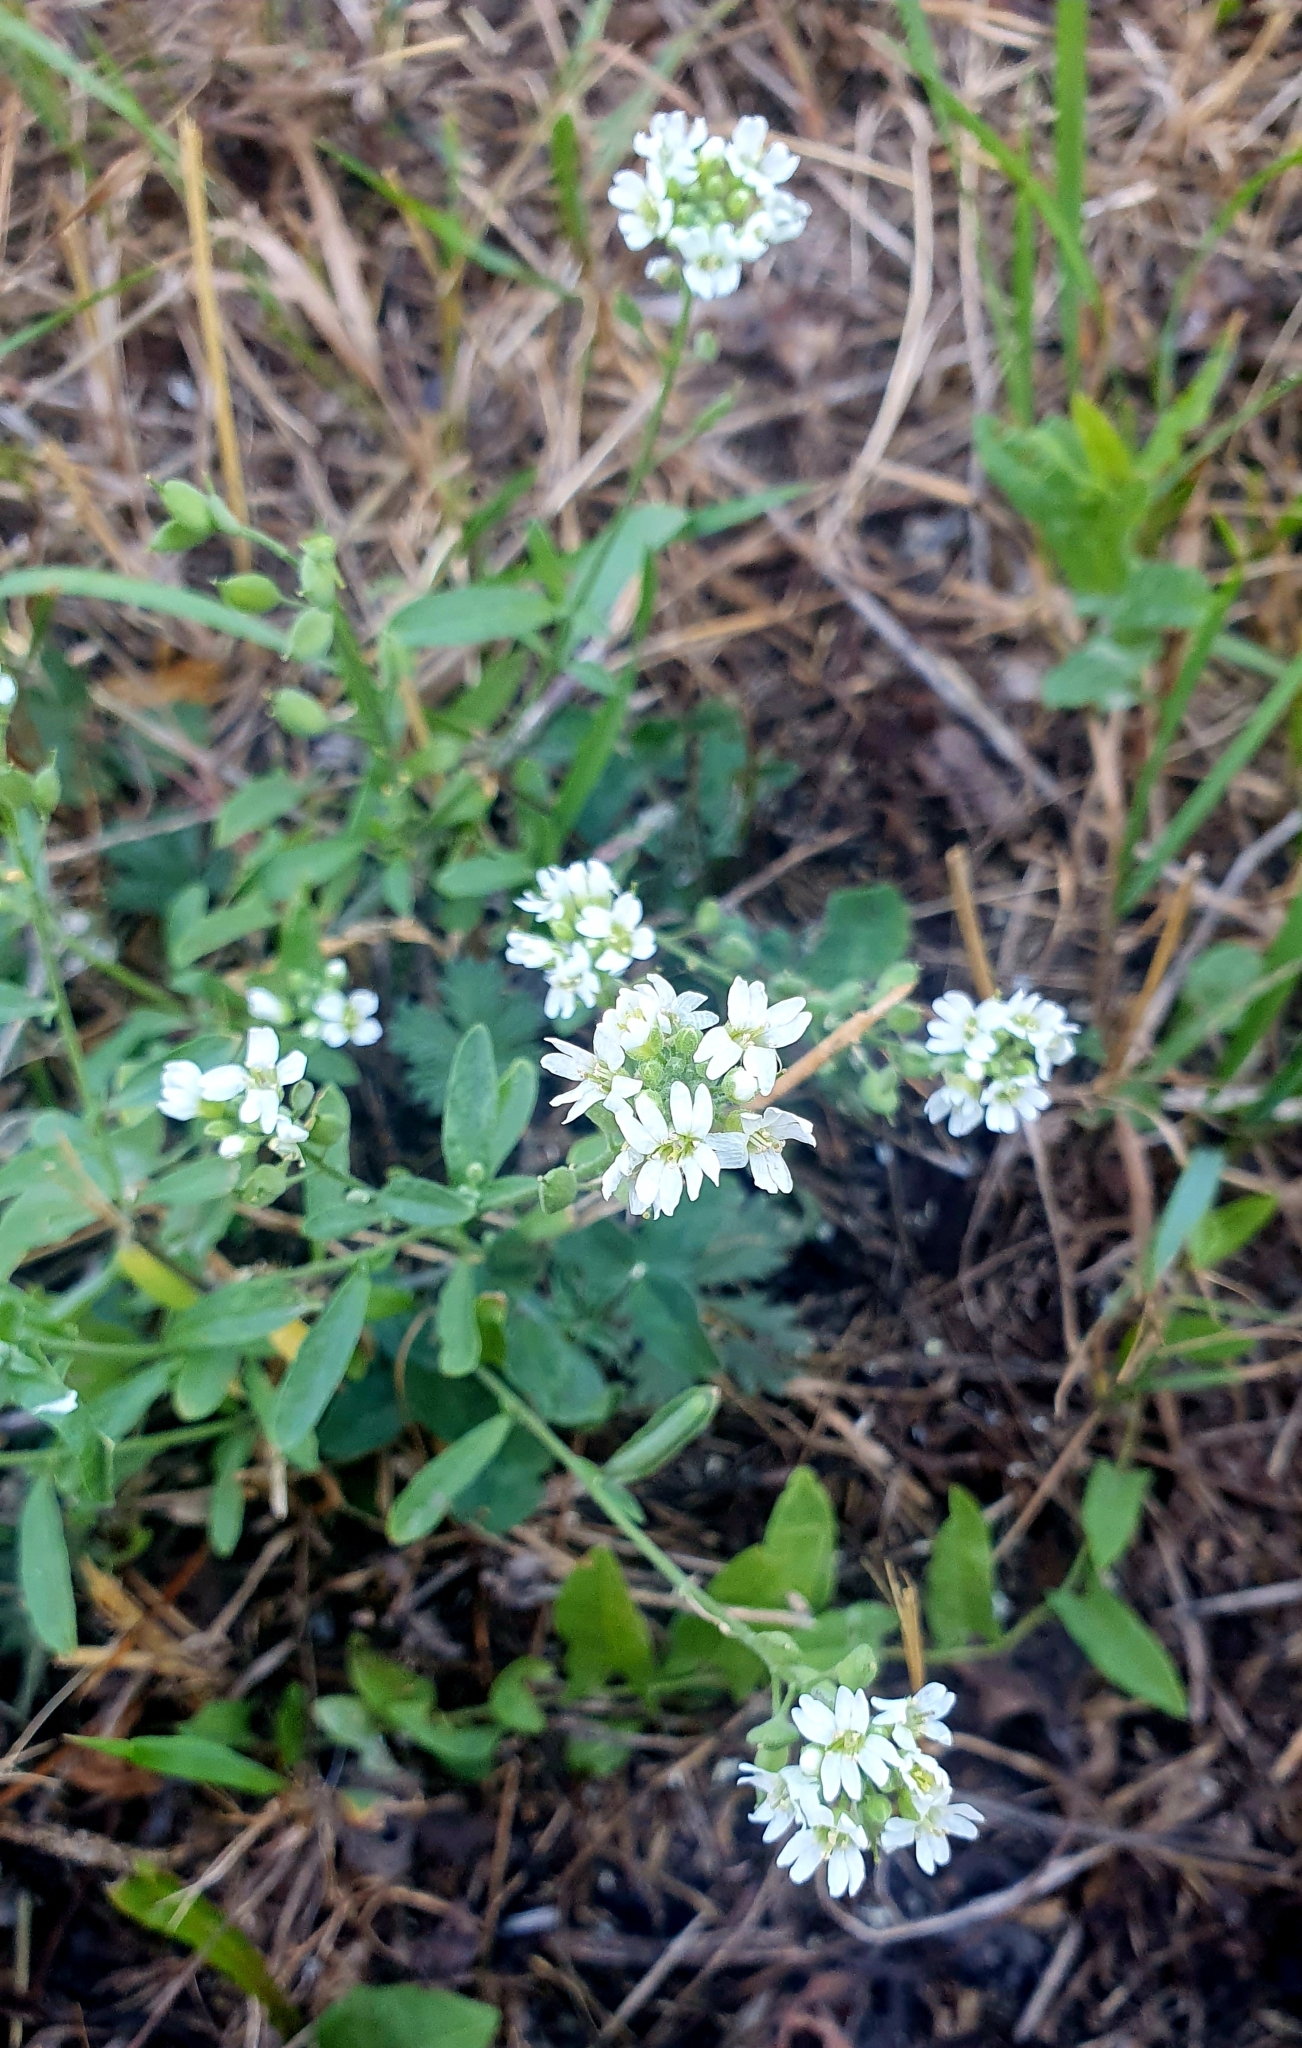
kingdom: Plantae
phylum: Tracheophyta
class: Magnoliopsida
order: Brassicales
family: Brassicaceae
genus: Berteroa
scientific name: Berteroa incana
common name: Hoary alison
